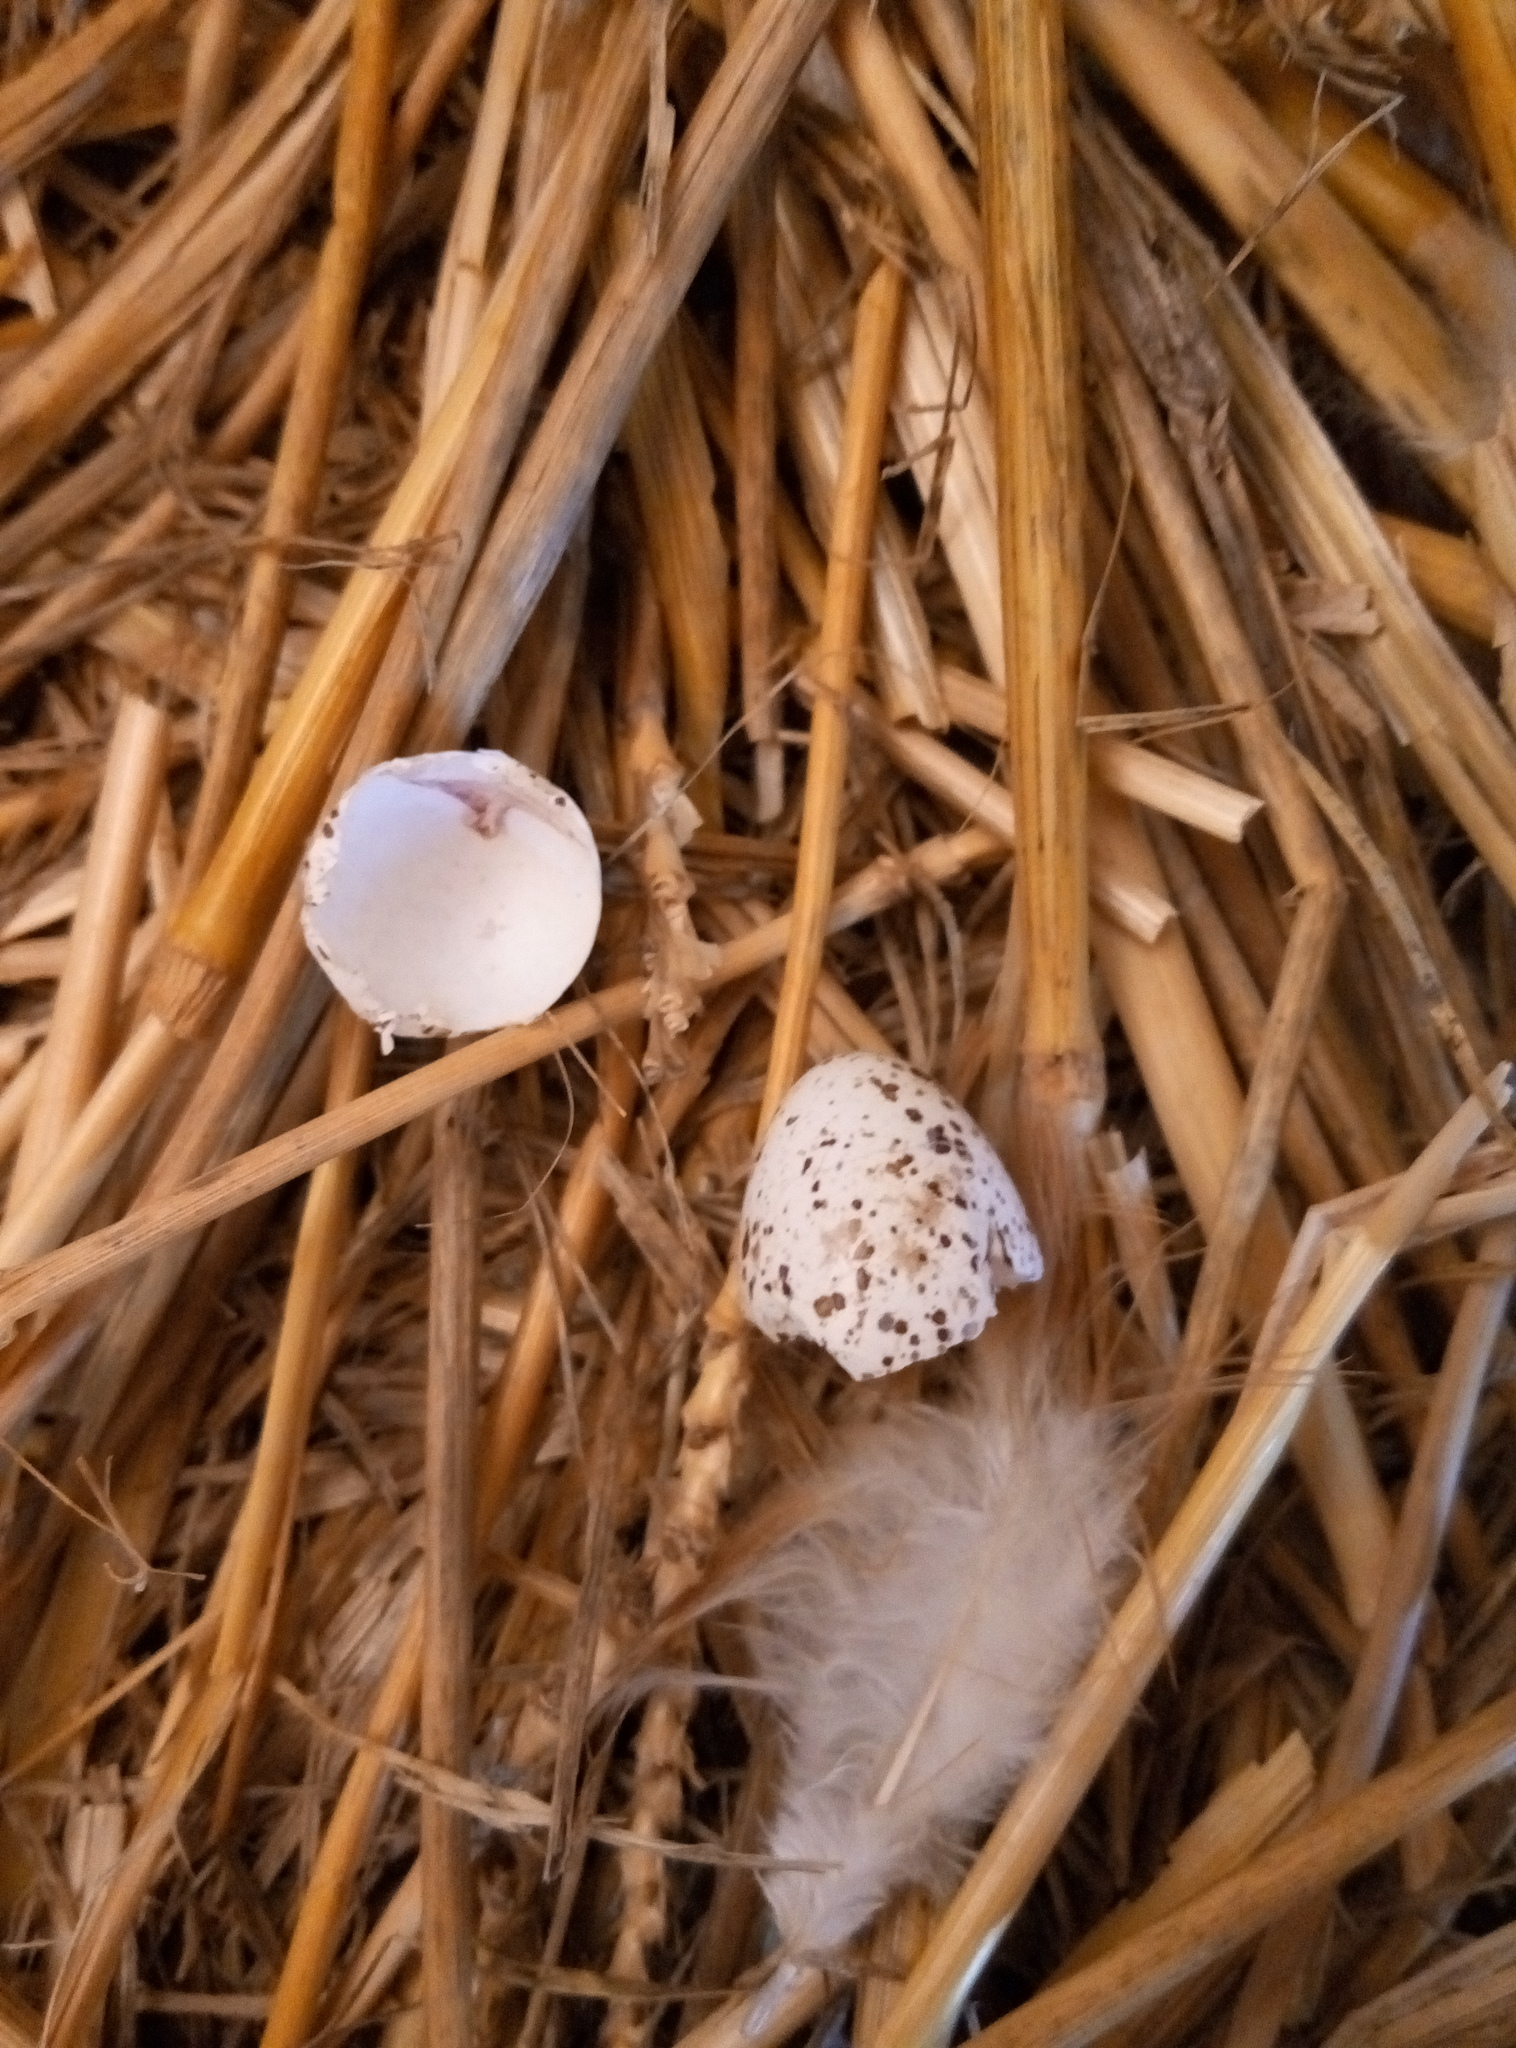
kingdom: Animalia
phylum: Chordata
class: Aves
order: Passeriformes
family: Hirundinidae
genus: Hirundo
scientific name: Hirundo rustica
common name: Barn swallow
